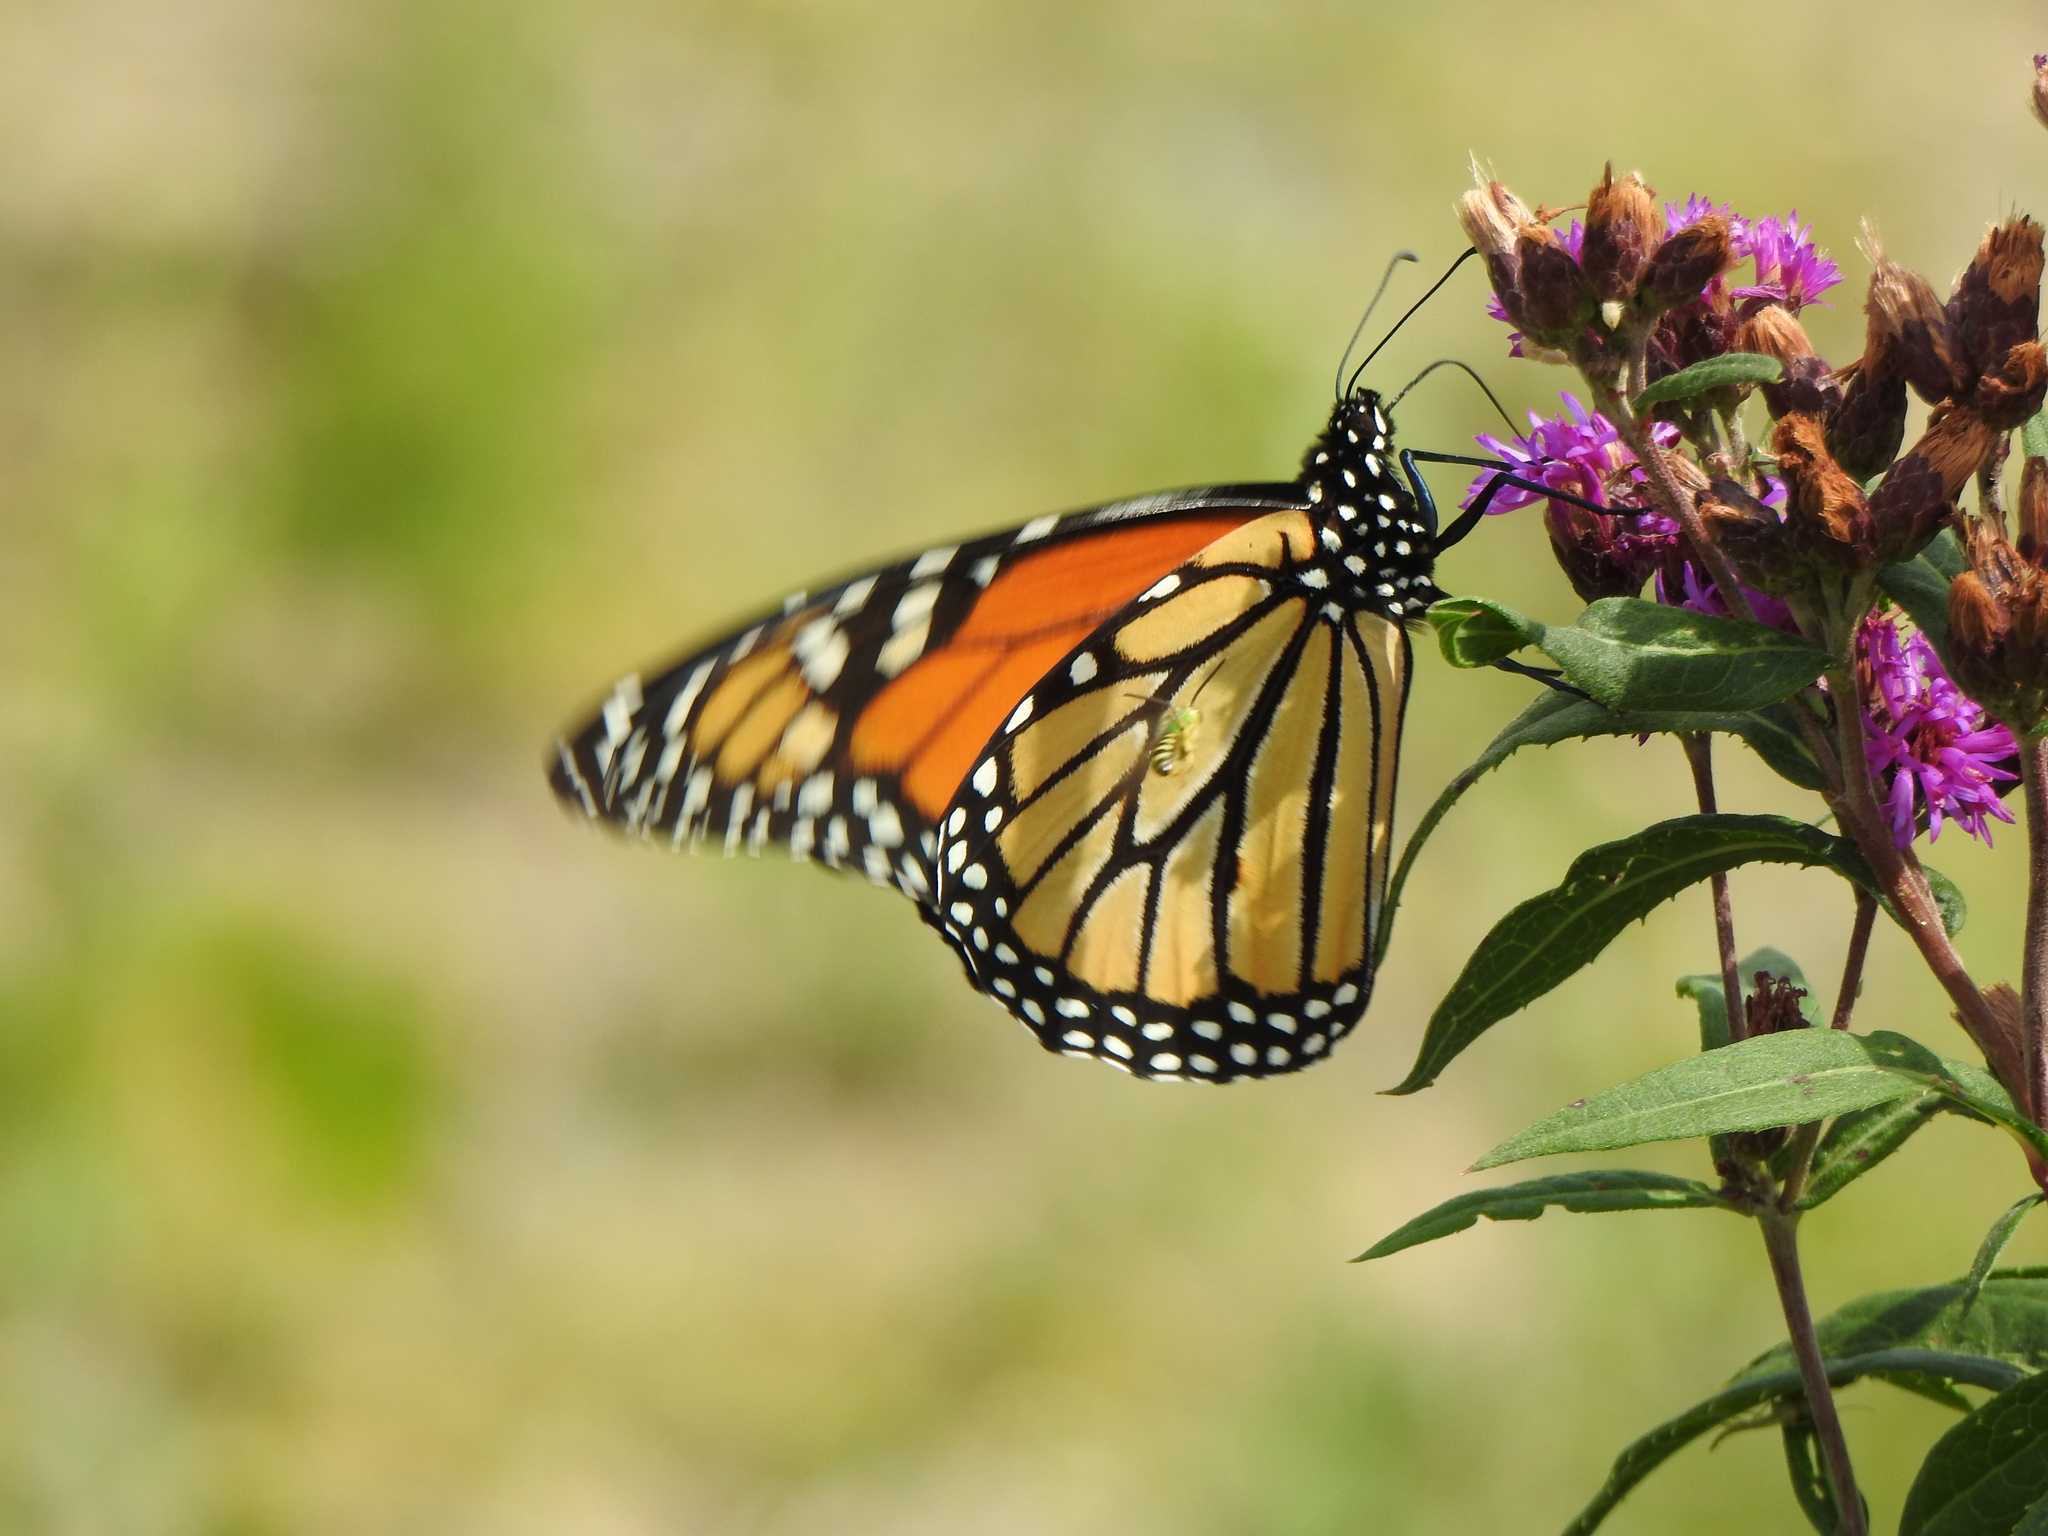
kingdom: Animalia
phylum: Arthropoda
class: Insecta
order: Lepidoptera
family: Nymphalidae
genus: Danaus
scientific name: Danaus plexippus
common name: Monarch
